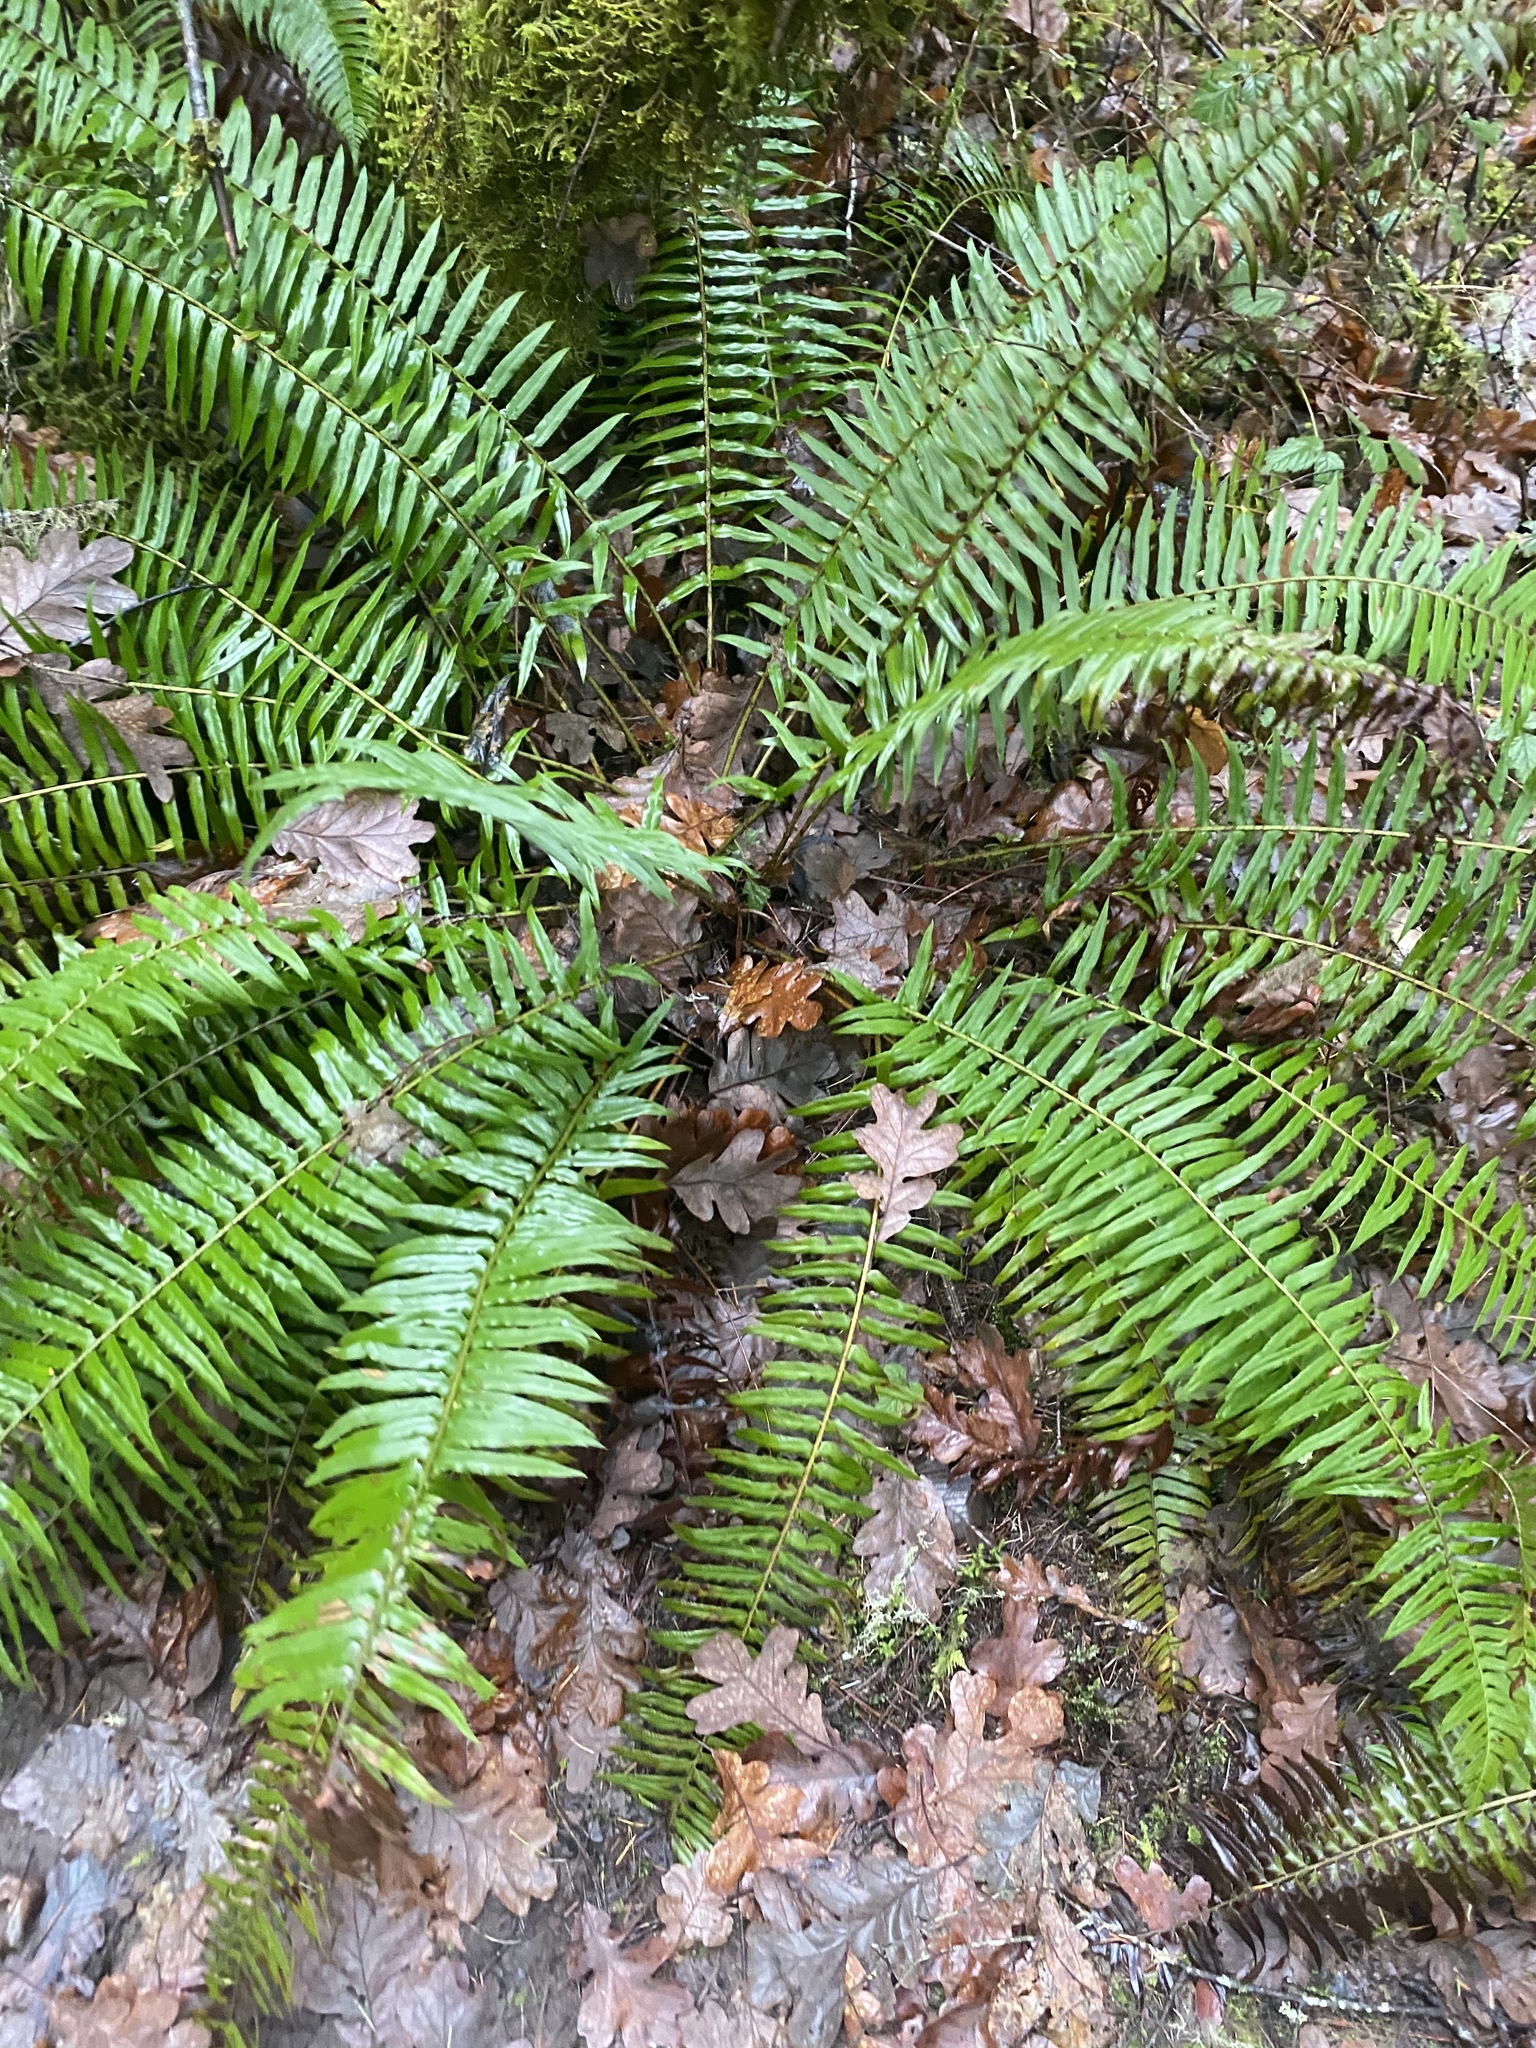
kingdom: Plantae
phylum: Tracheophyta
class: Polypodiopsida
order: Polypodiales
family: Dryopteridaceae
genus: Polystichum
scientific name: Polystichum munitum
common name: Western sword-fern
